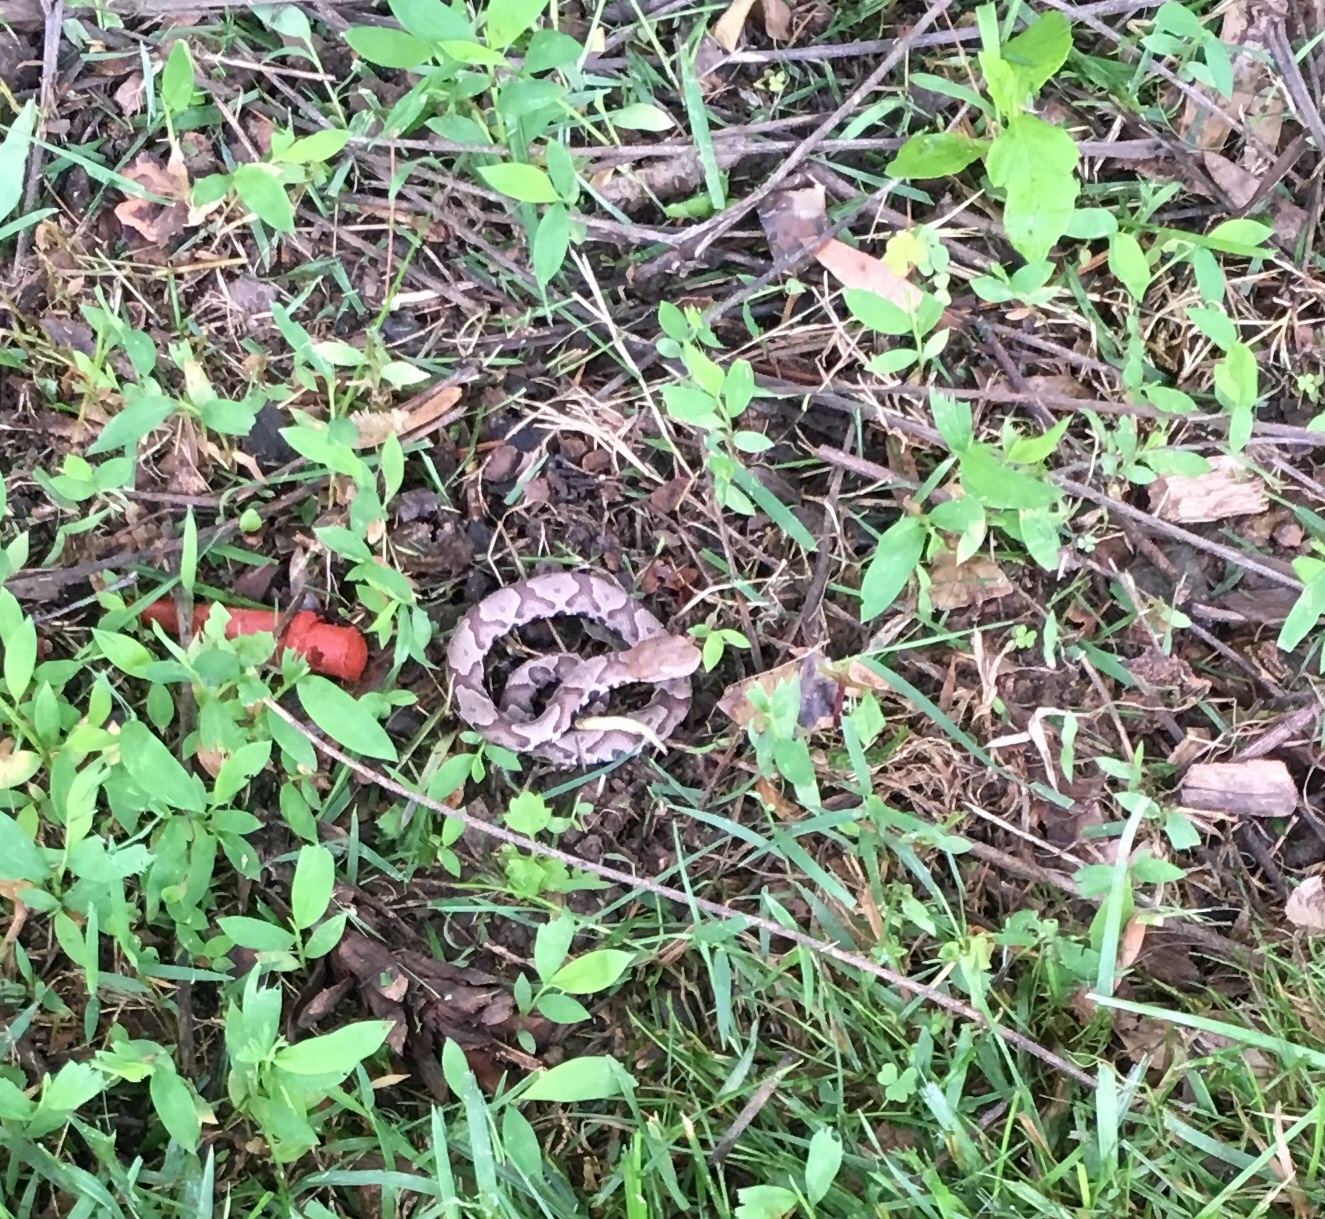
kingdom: Animalia
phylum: Chordata
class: Squamata
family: Viperidae
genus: Agkistrodon
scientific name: Agkistrodon contortrix
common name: Northern copperhead
